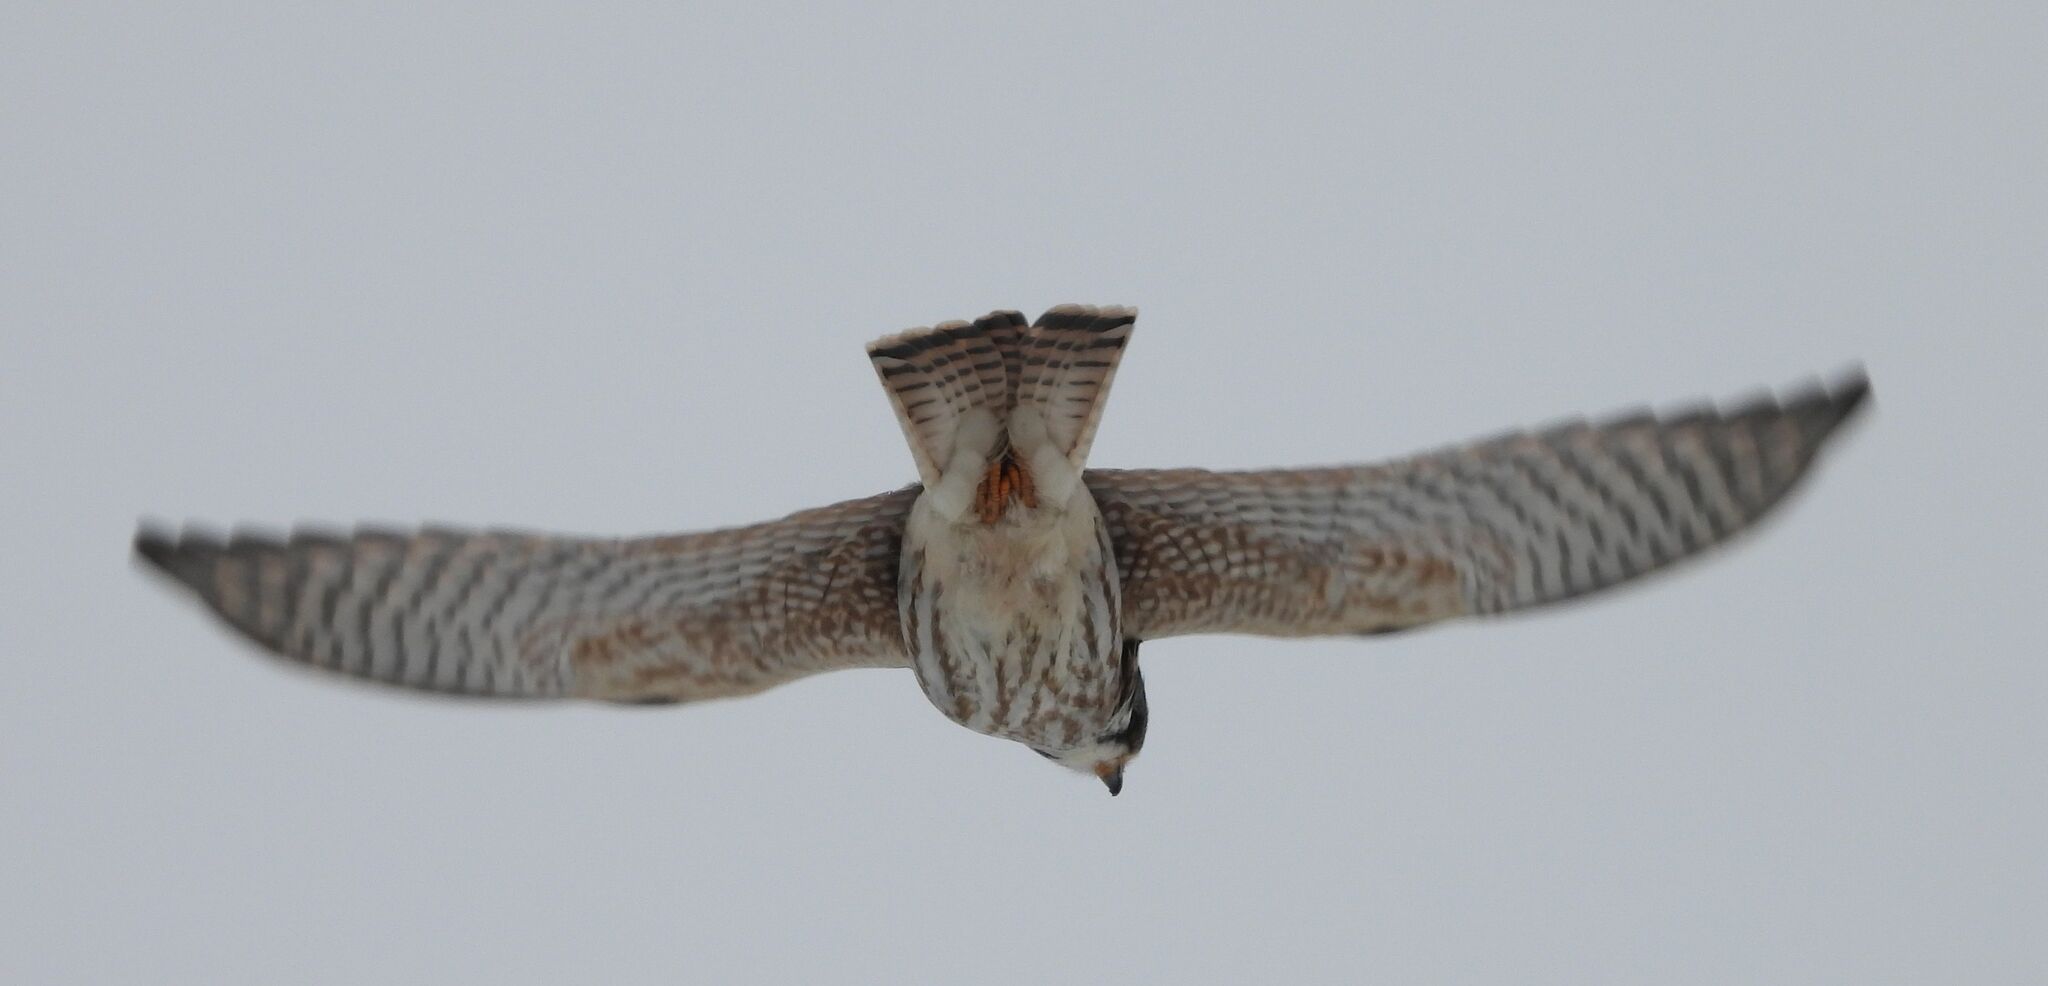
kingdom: Animalia
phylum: Chordata
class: Aves
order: Falconiformes
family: Falconidae
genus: Falco
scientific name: Falco sparverius
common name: American kestrel
